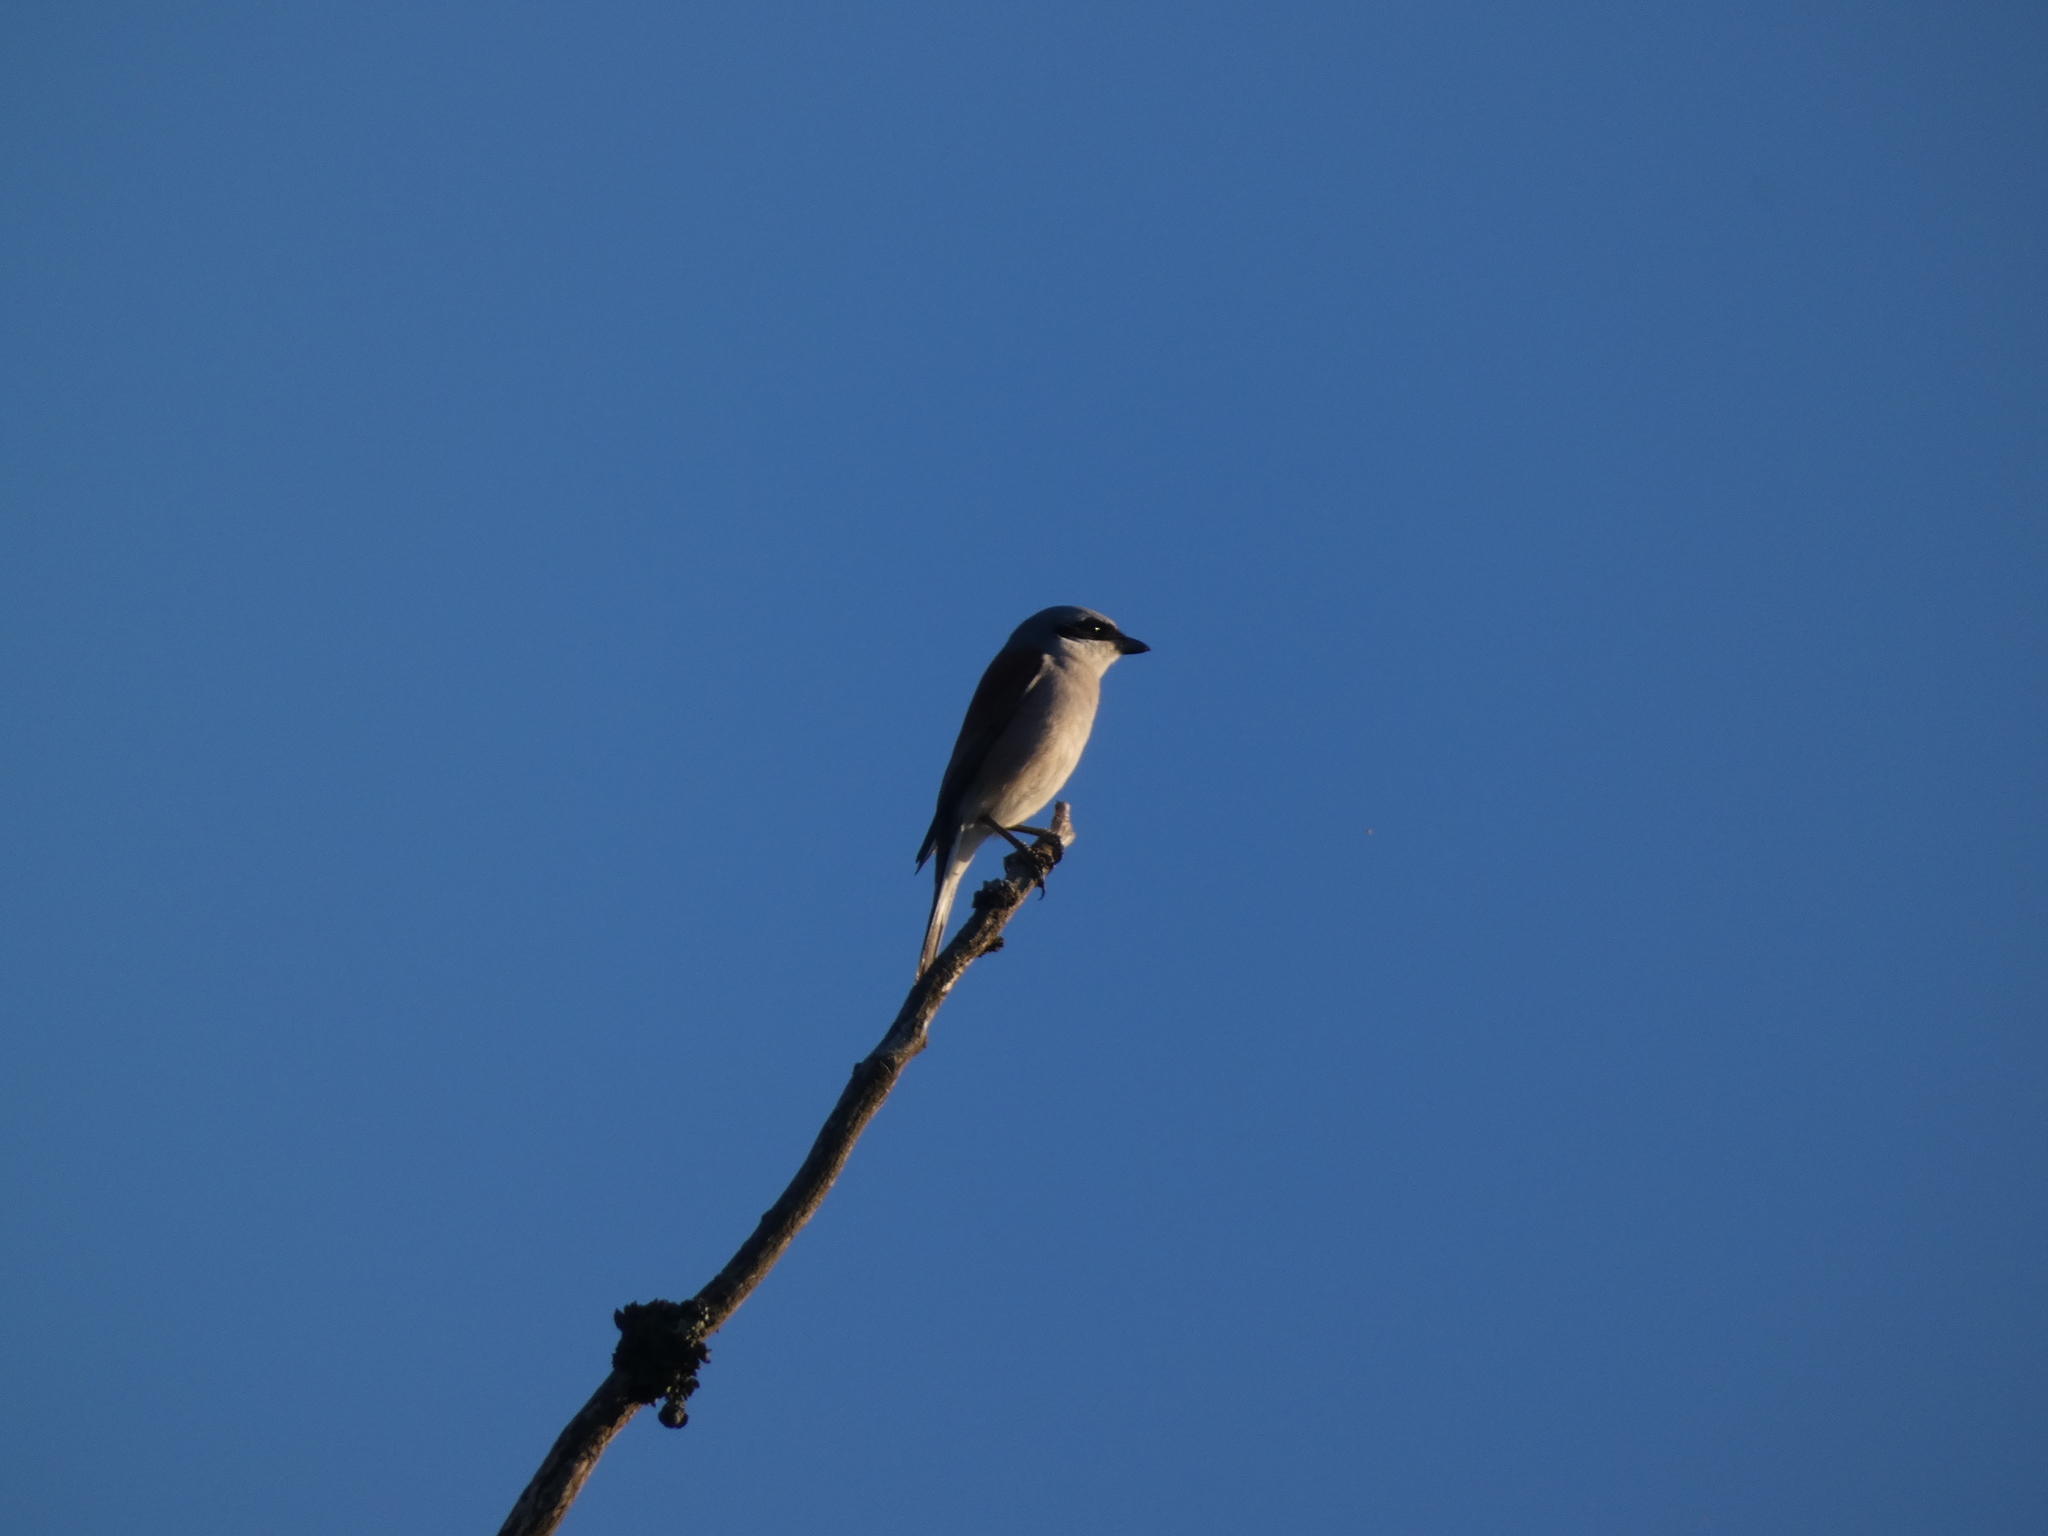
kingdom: Animalia
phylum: Chordata
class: Aves
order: Passeriformes
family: Laniidae
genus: Lanius
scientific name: Lanius collurio
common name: Red-backed shrike
